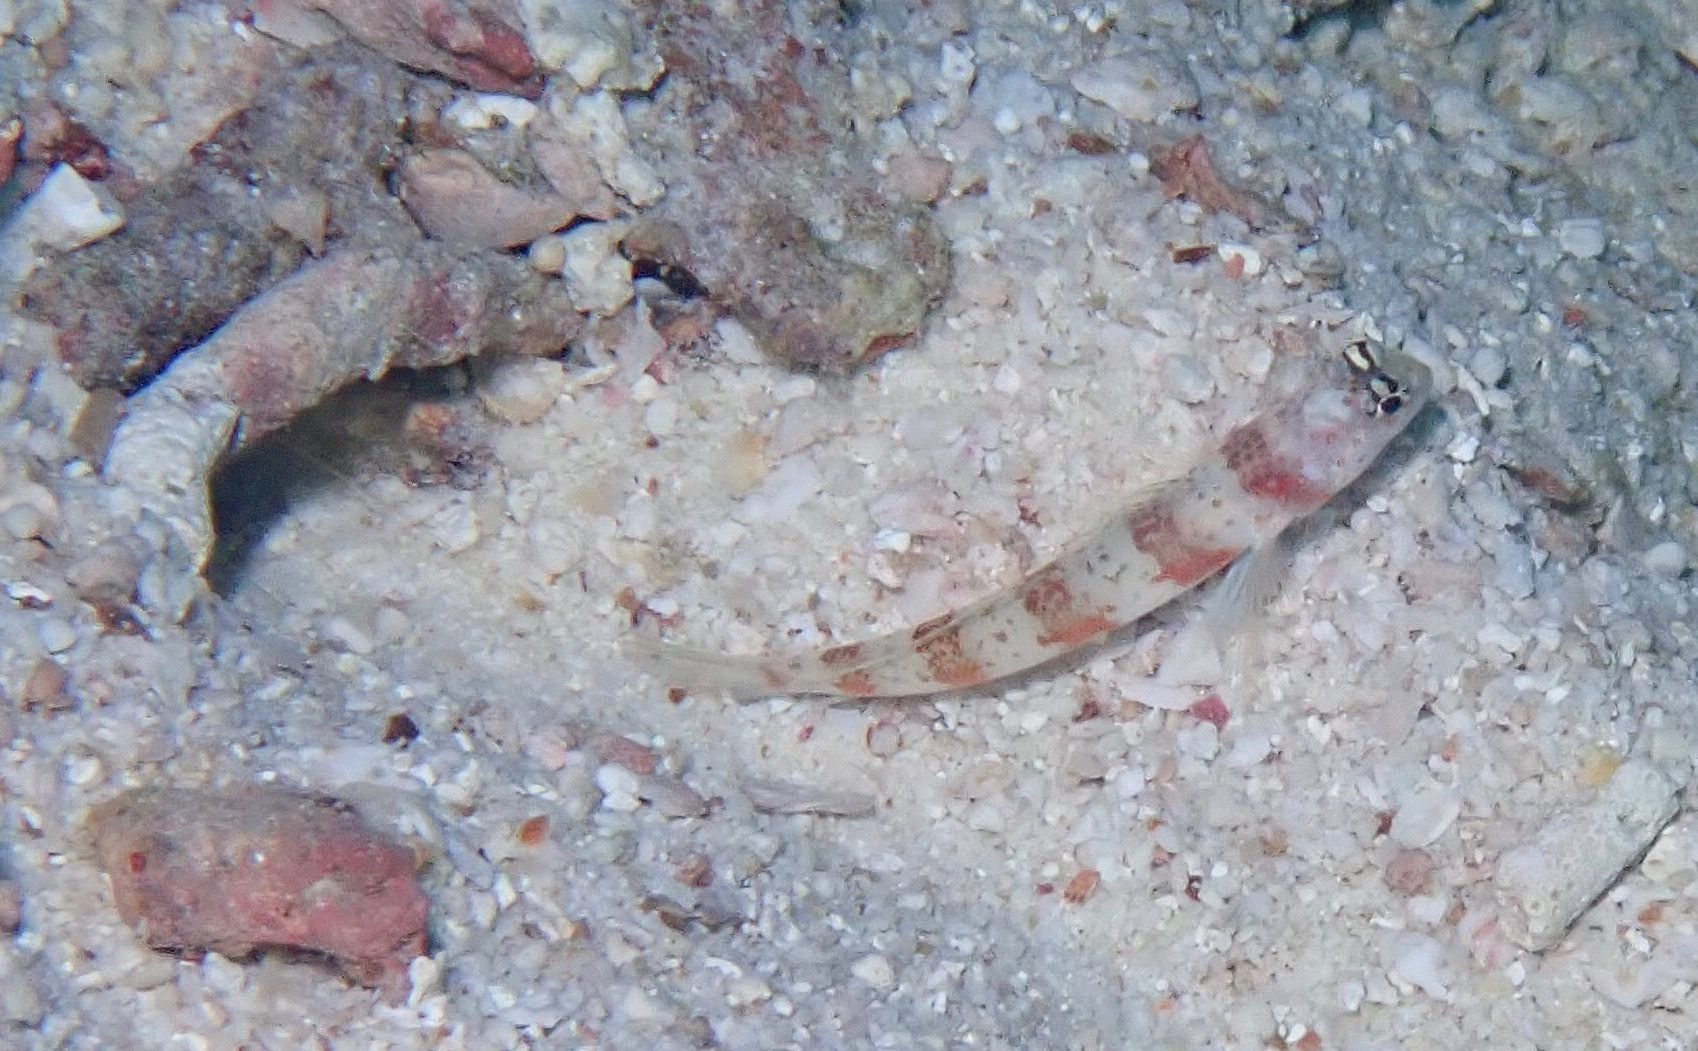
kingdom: Animalia
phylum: Chordata
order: Perciformes
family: Gobiidae
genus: Amblyeleotris
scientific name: Amblyeleotris periophthalma
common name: Periophthalma prawn-goby
